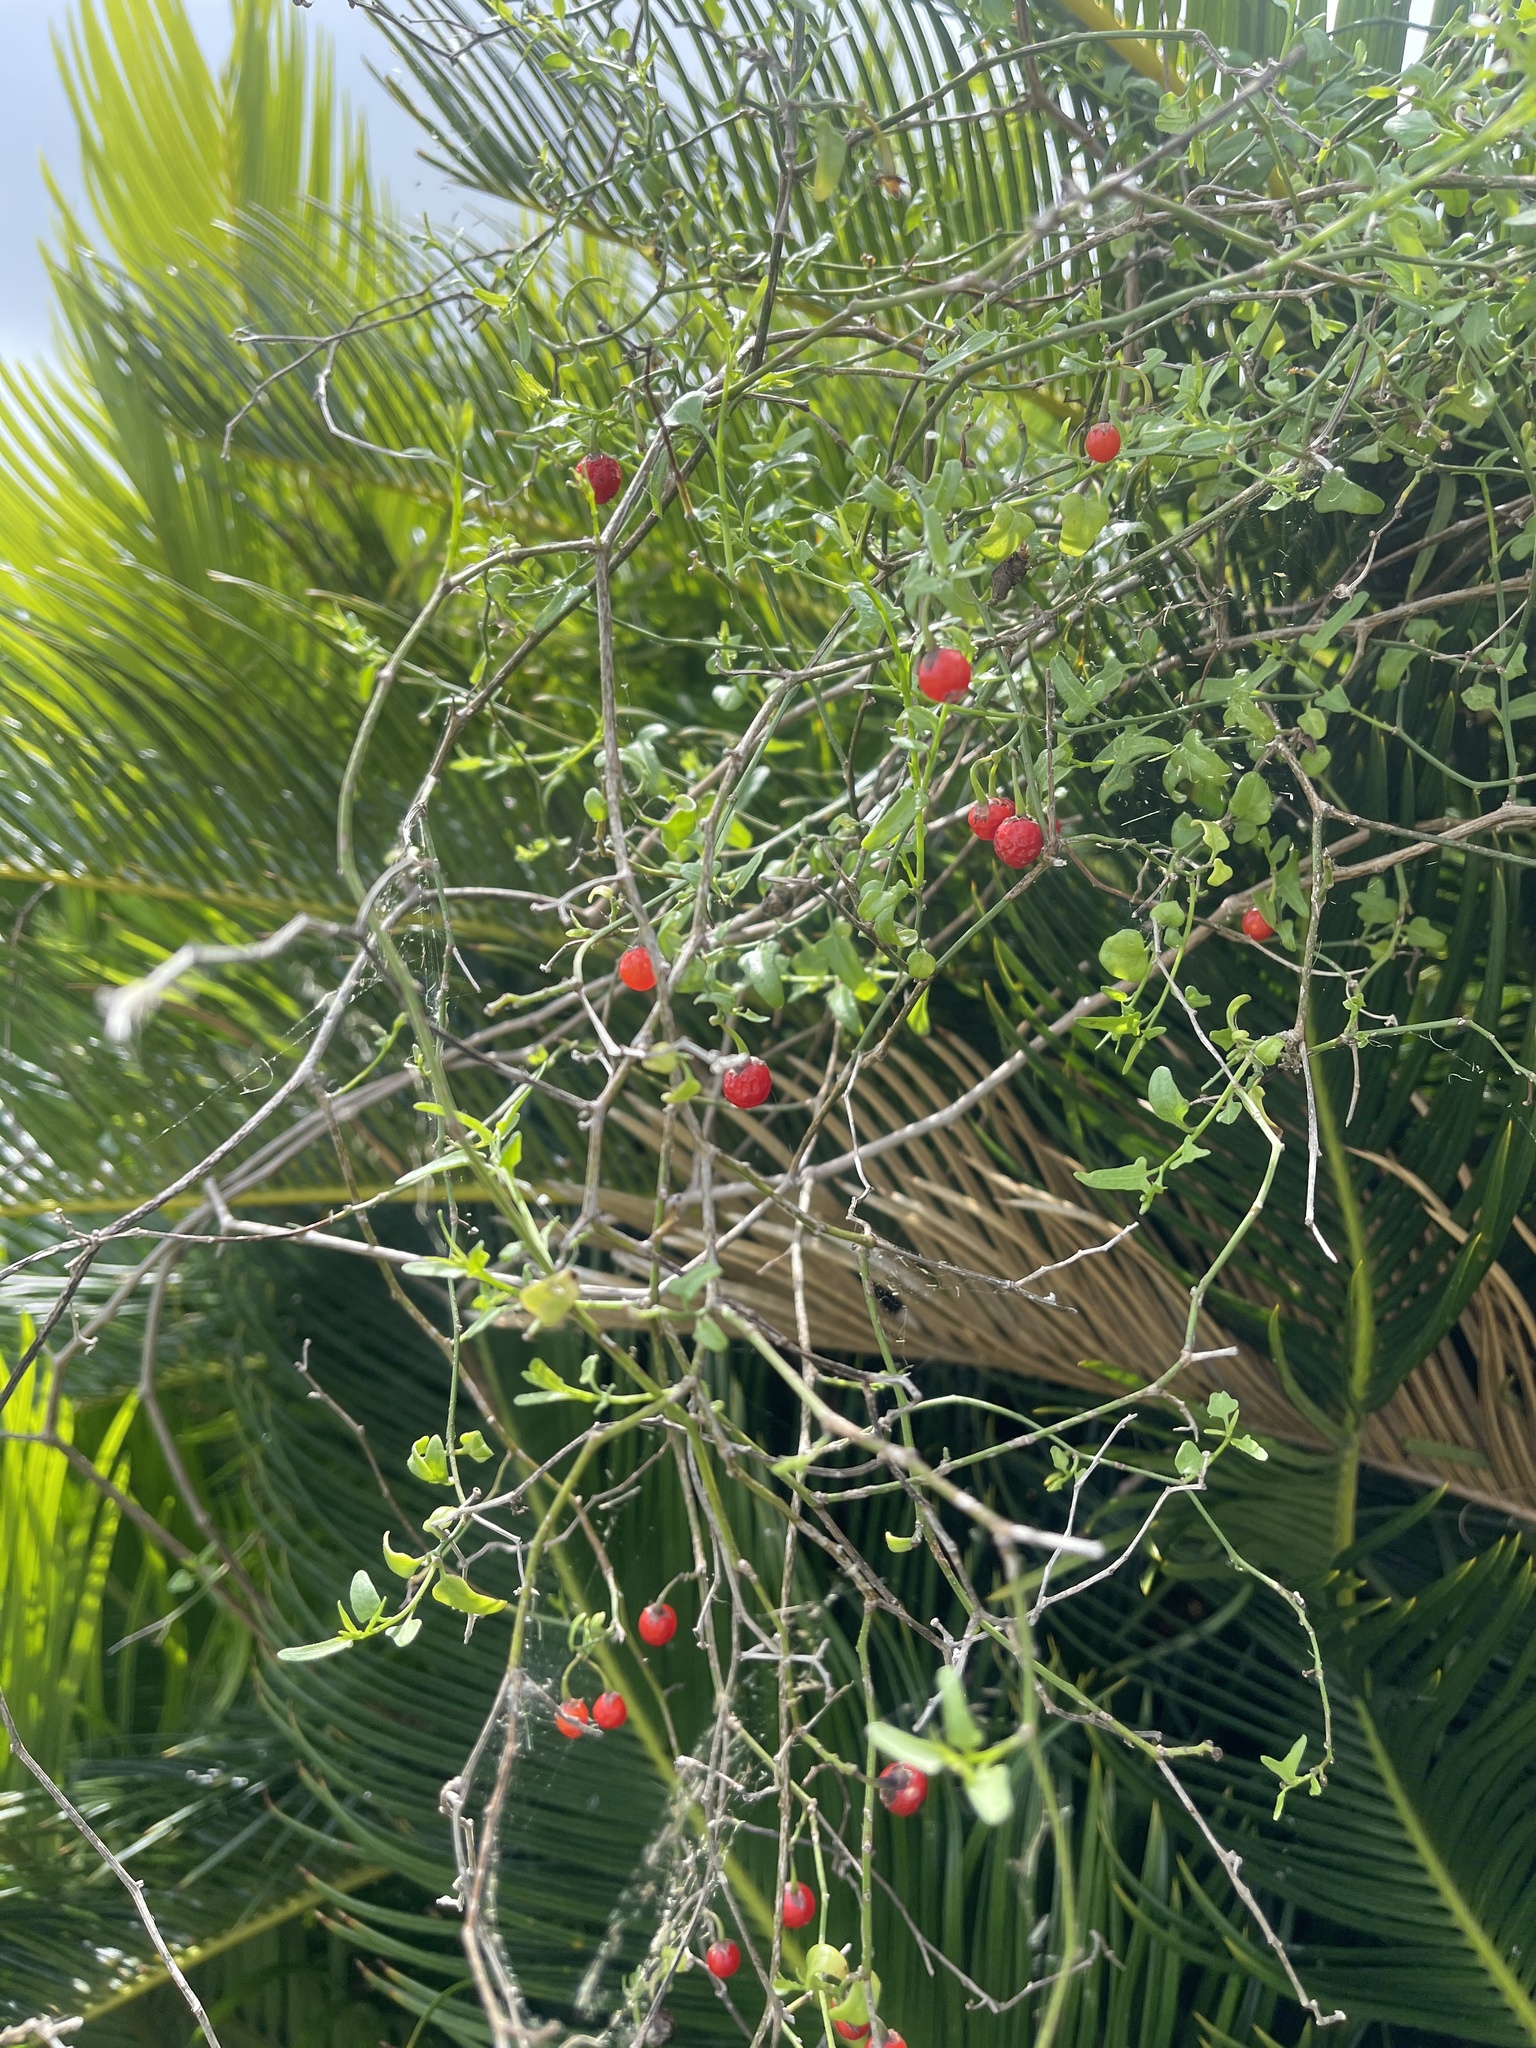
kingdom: Plantae
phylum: Tracheophyta
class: Magnoliopsida
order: Solanales
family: Solanaceae
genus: Solanum
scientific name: Solanum triquetrum
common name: Texas nightshade
